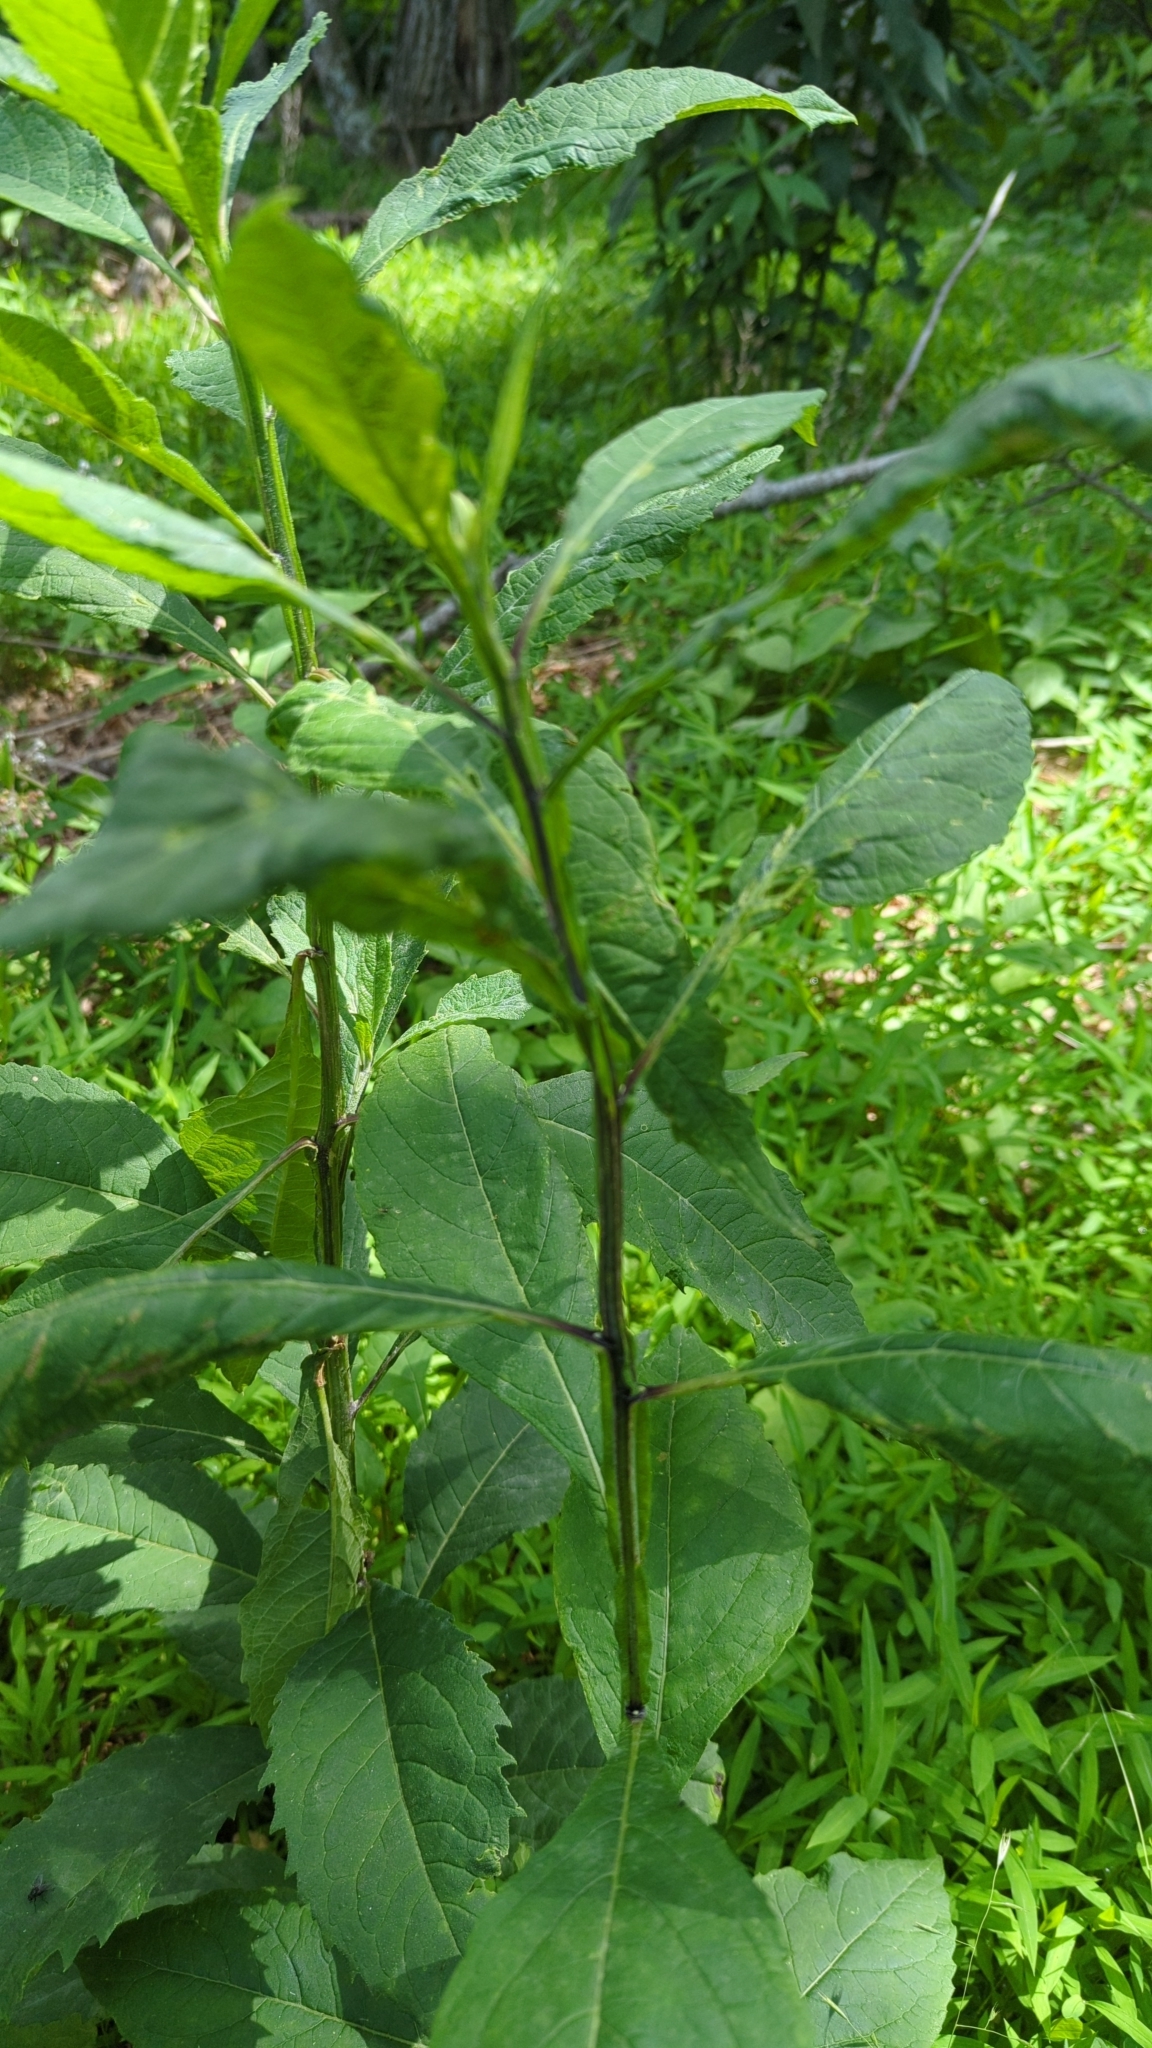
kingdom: Plantae
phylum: Tracheophyta
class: Magnoliopsida
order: Asterales
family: Asteraceae
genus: Verbesina
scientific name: Verbesina alternifolia
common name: Wingstem
